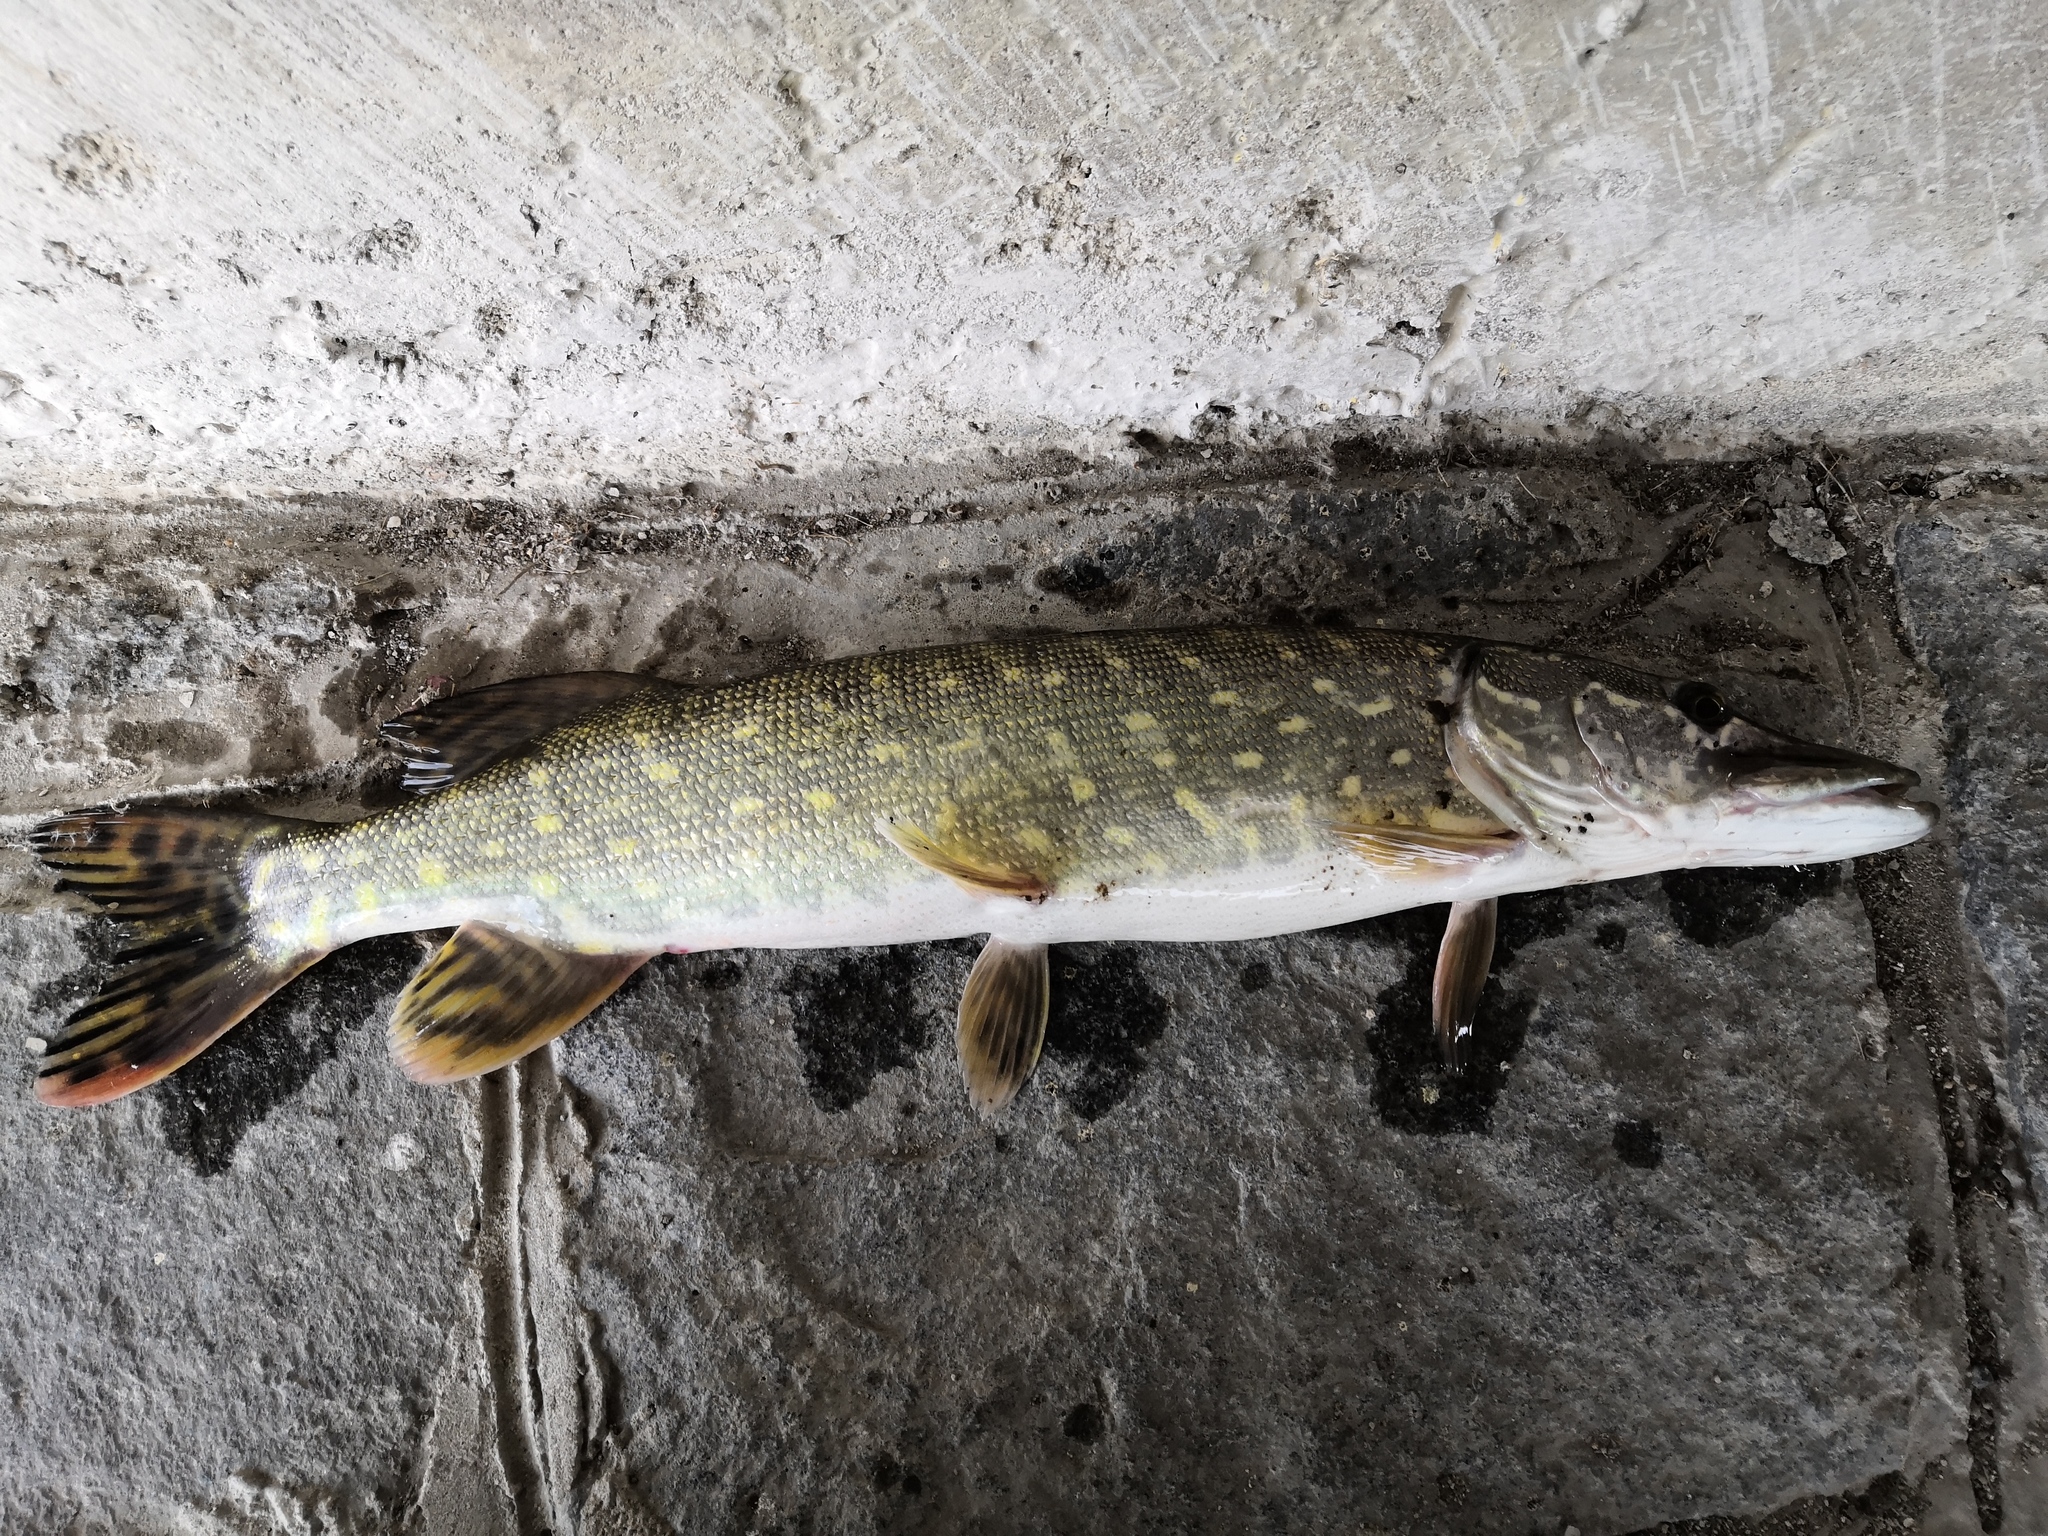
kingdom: Animalia
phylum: Chordata
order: Esociformes
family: Esocidae
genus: Esox
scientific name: Esox lucius
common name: Northern pike
